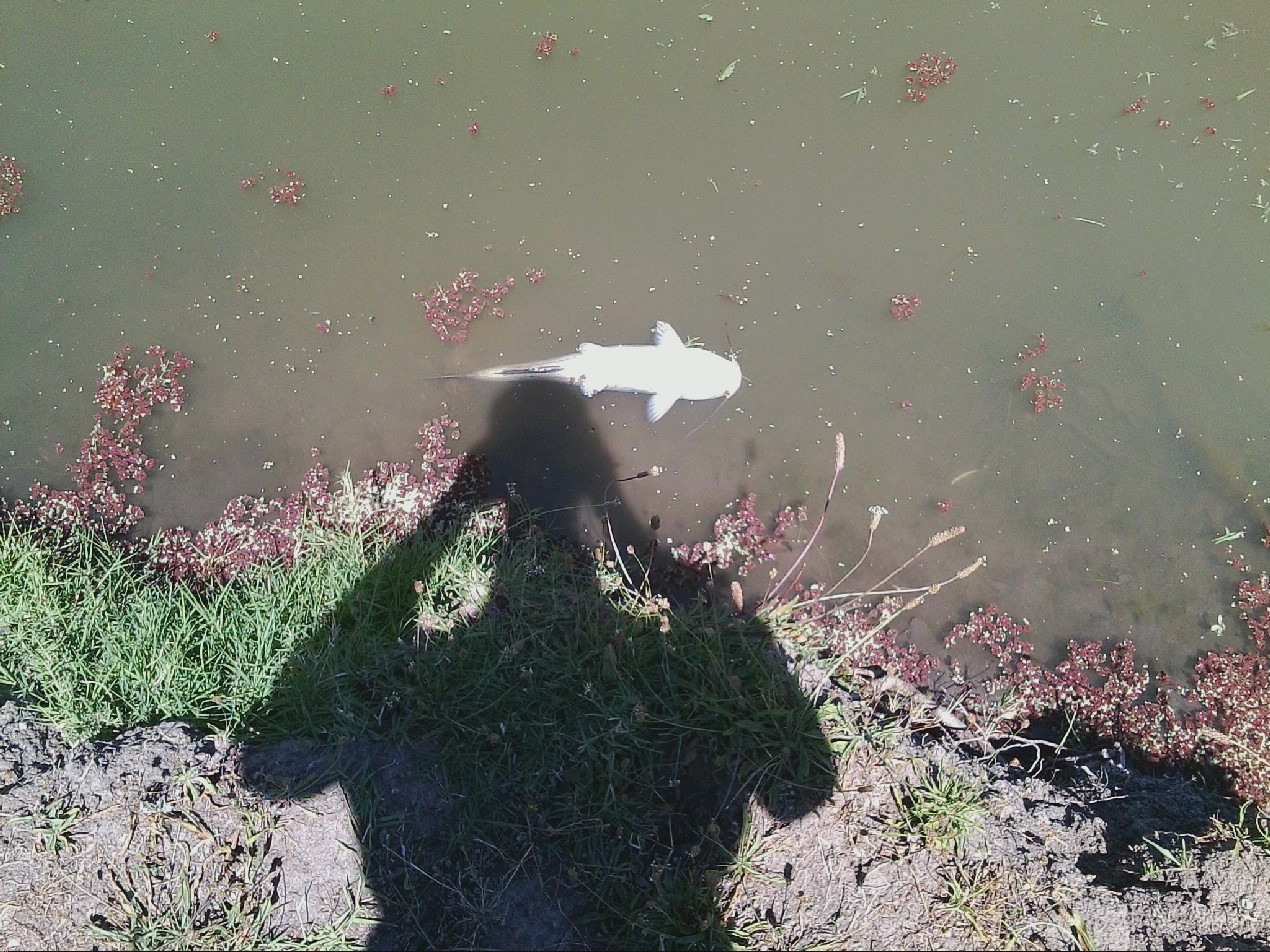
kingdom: Animalia
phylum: Chordata
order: Siluriformes
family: Ictaluridae
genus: Ictalurus
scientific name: Ictalurus punctatus
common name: Channel catfish
